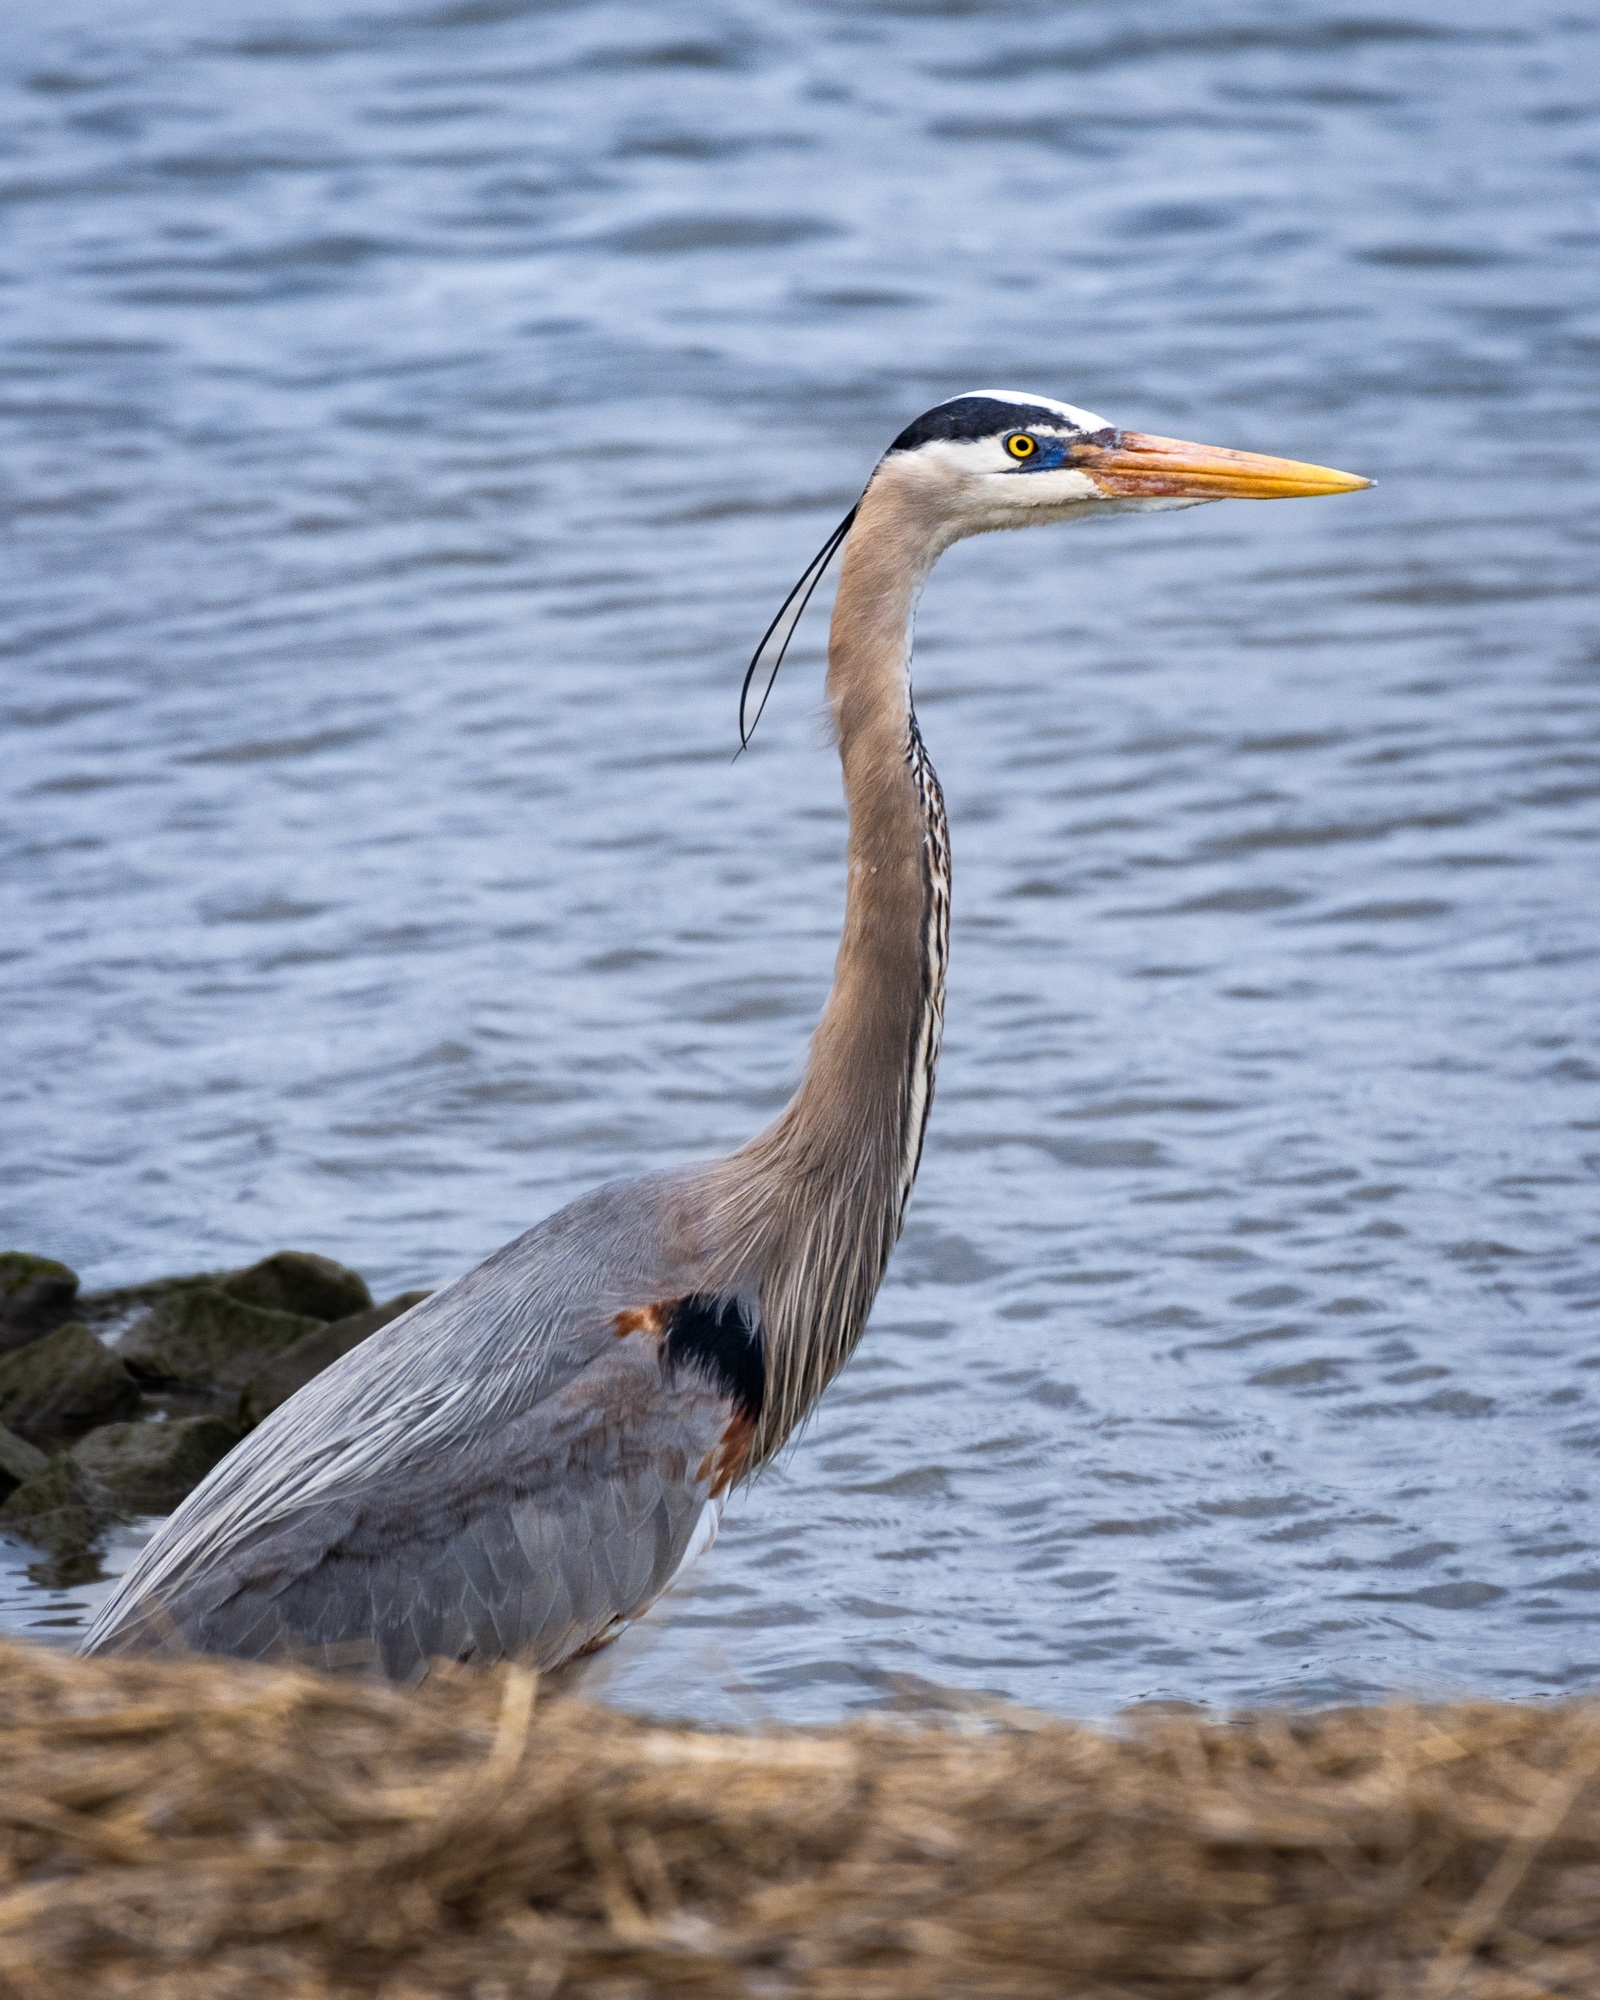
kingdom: Animalia
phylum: Chordata
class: Aves
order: Pelecaniformes
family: Ardeidae
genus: Ardea
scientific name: Ardea herodias
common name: Great blue heron
